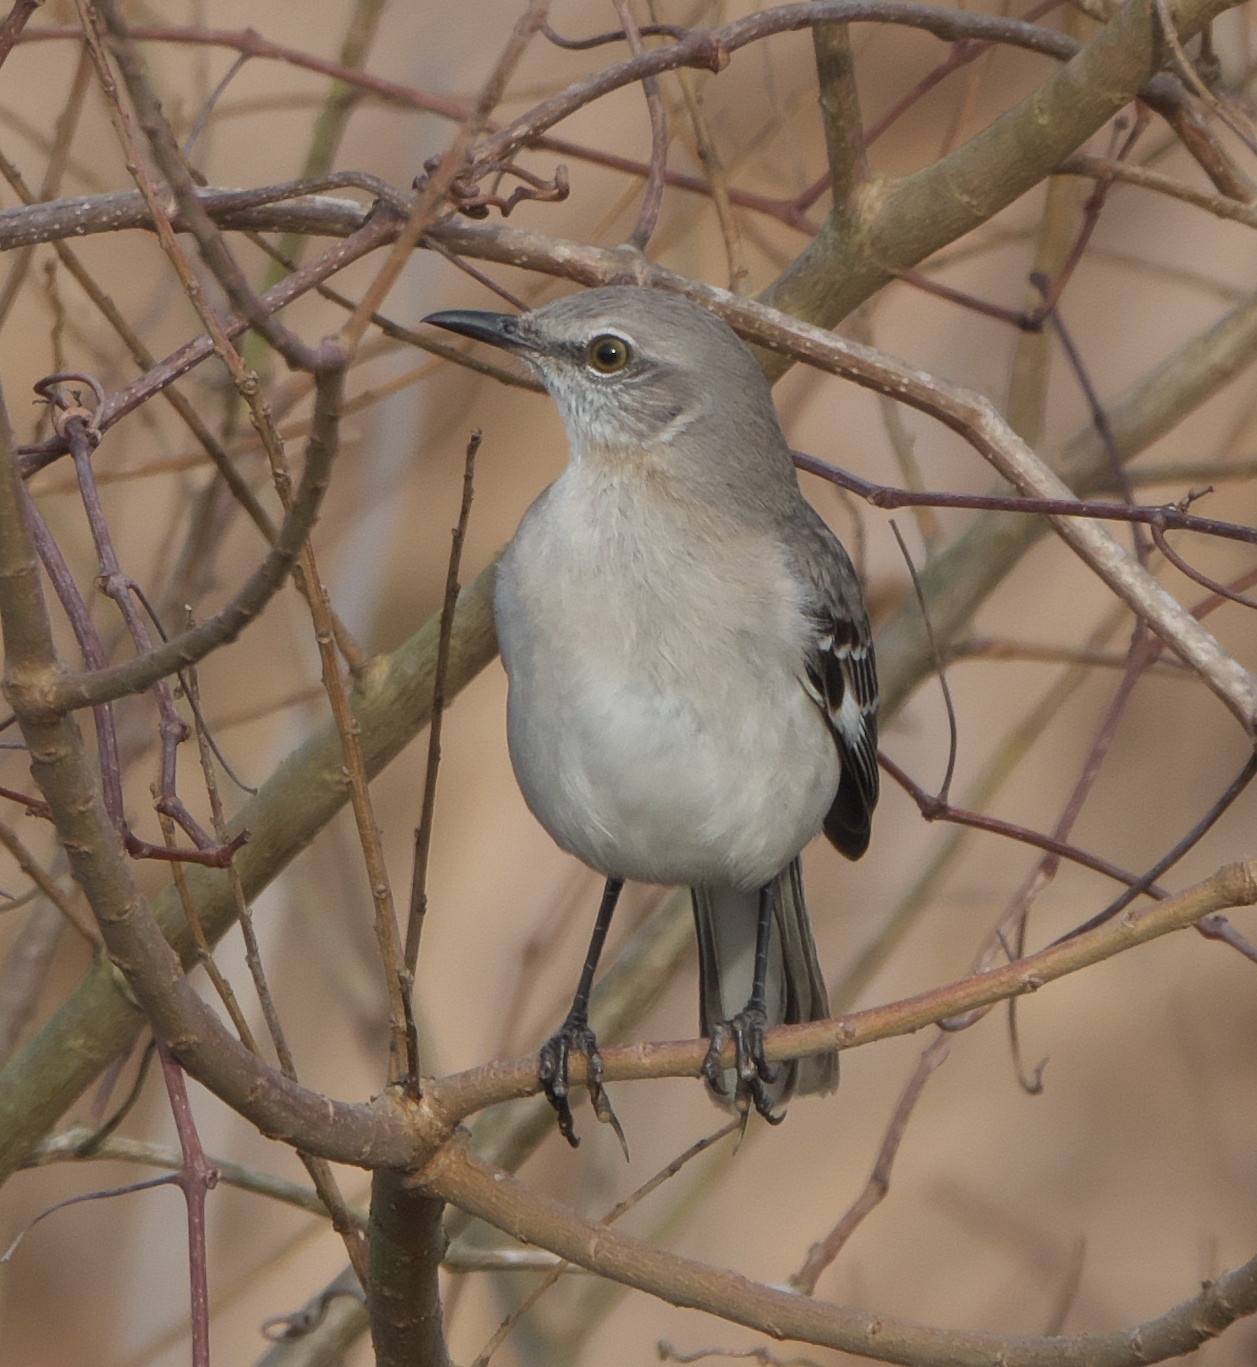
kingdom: Animalia
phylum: Chordata
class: Aves
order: Passeriformes
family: Mimidae
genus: Mimus
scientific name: Mimus polyglottos
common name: Northern mockingbird
